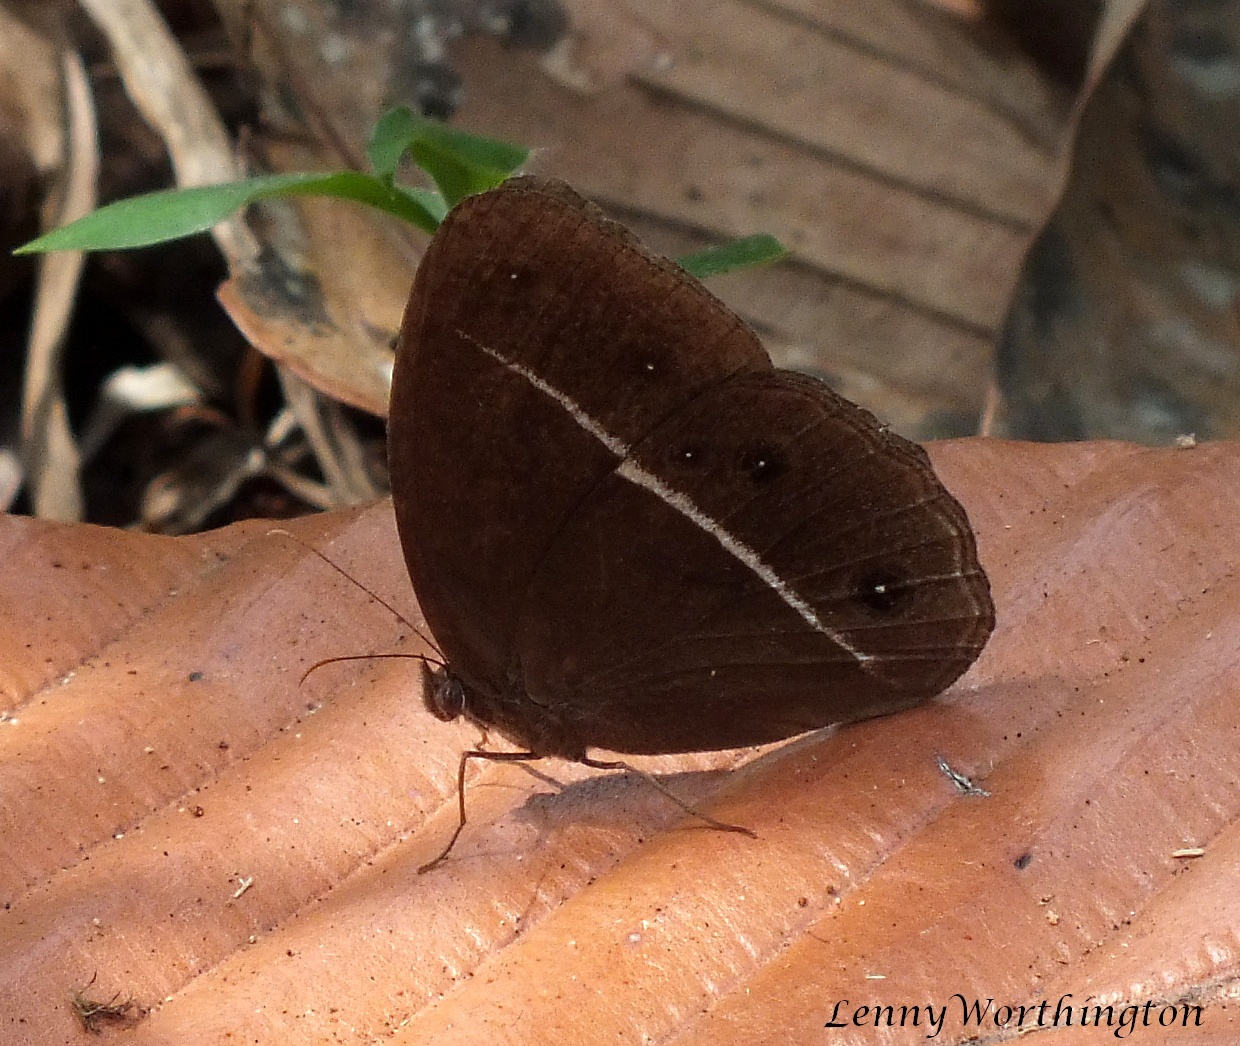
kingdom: Animalia
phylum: Arthropoda
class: Insecta
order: Lepidoptera
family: Nymphalidae
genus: Orsotriaena
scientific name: Orsotriaena medus
